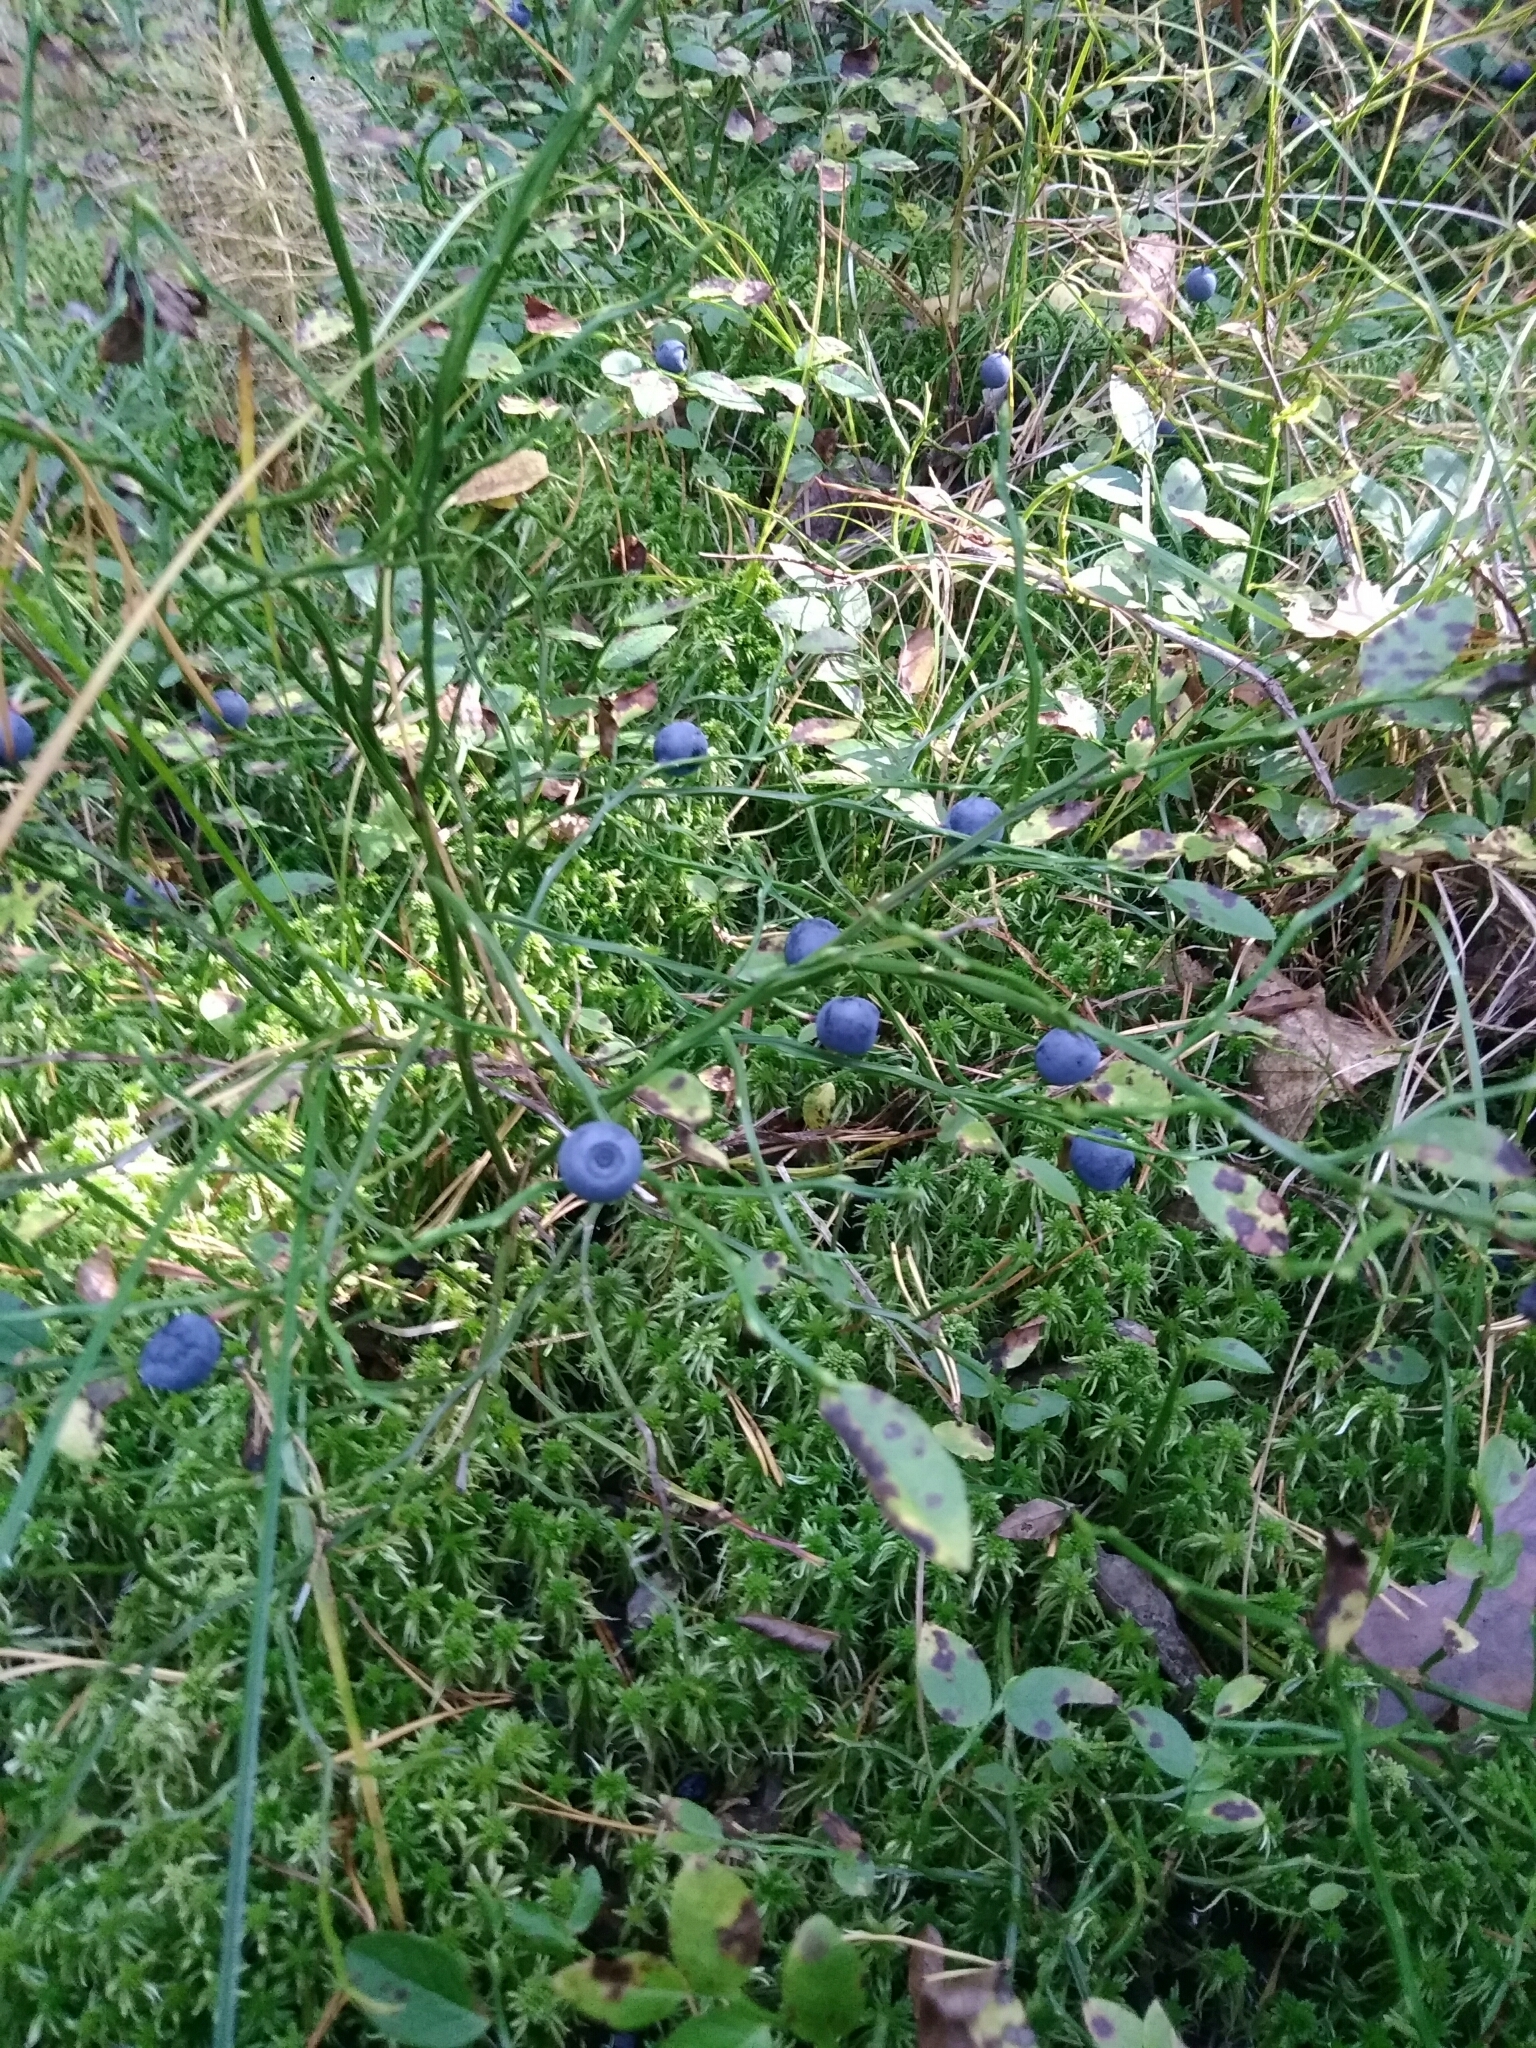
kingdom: Plantae
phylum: Tracheophyta
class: Magnoliopsida
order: Ericales
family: Ericaceae
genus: Vaccinium
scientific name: Vaccinium myrtillus
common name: Bilberry
